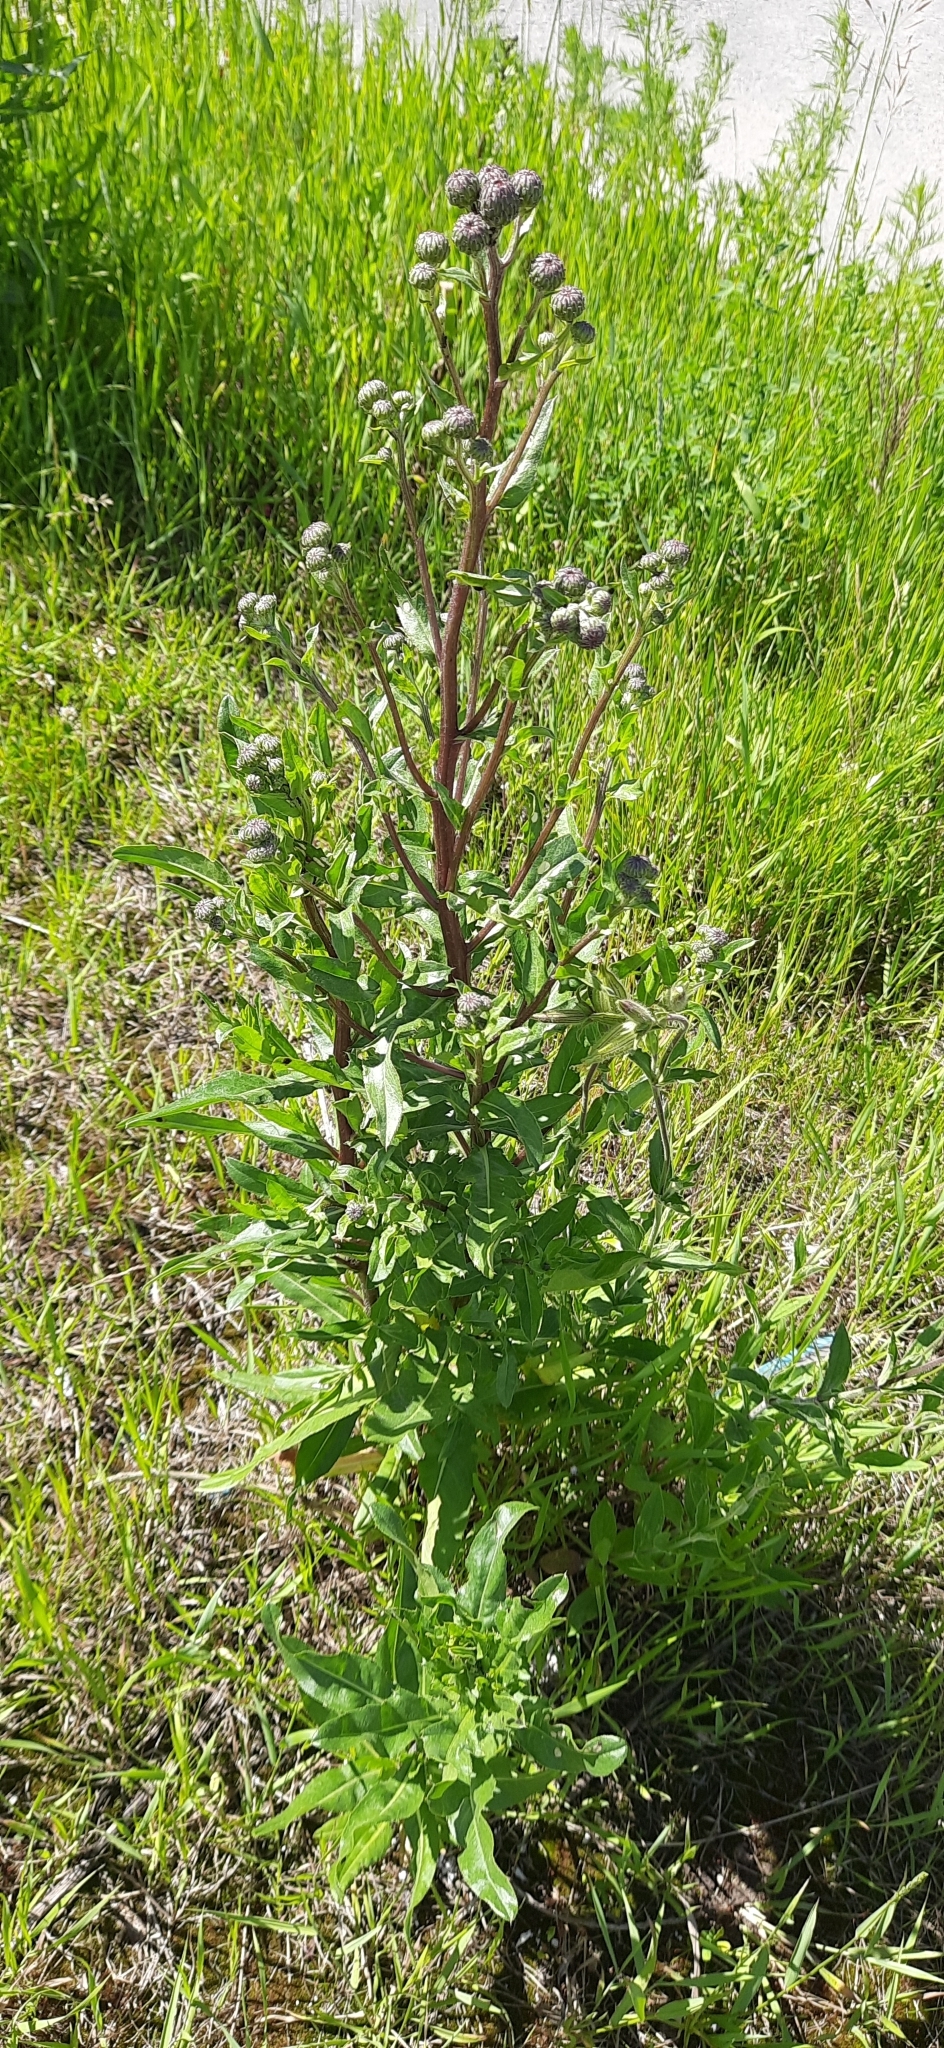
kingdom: Plantae
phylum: Tracheophyta
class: Magnoliopsida
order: Asterales
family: Asteraceae
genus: Cirsium
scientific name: Cirsium arvense
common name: Creeping thistle
